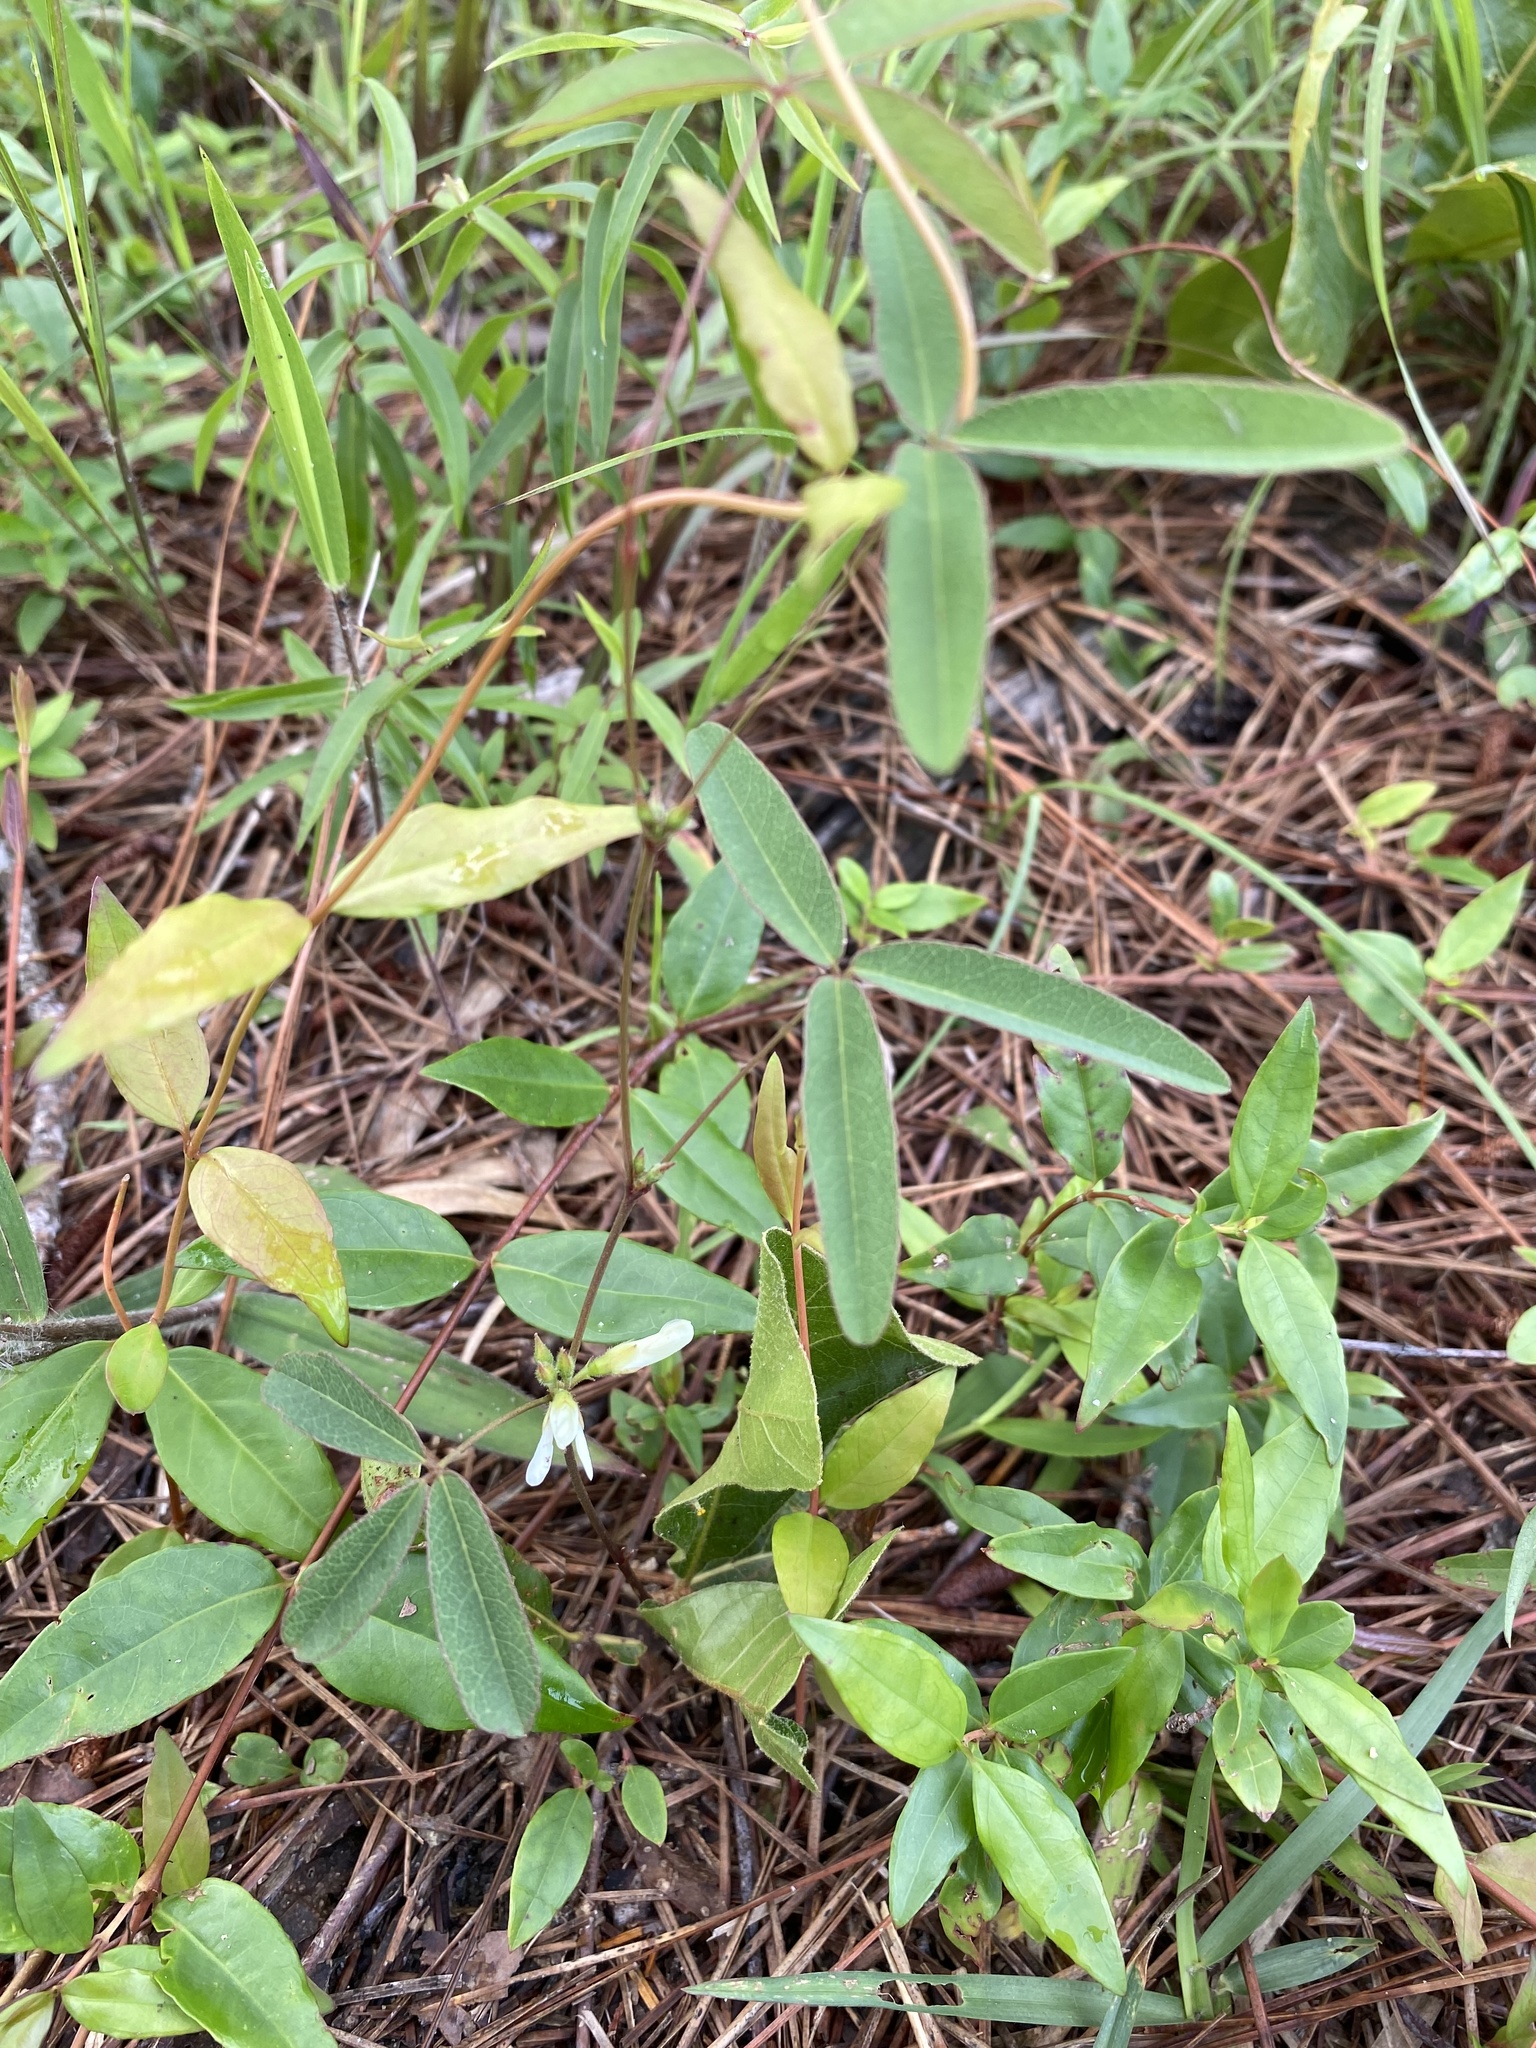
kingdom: Plantae
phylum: Tracheophyta
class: Magnoliopsida
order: Fabales
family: Fabaceae
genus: Galactia
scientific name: Galactia erecta
